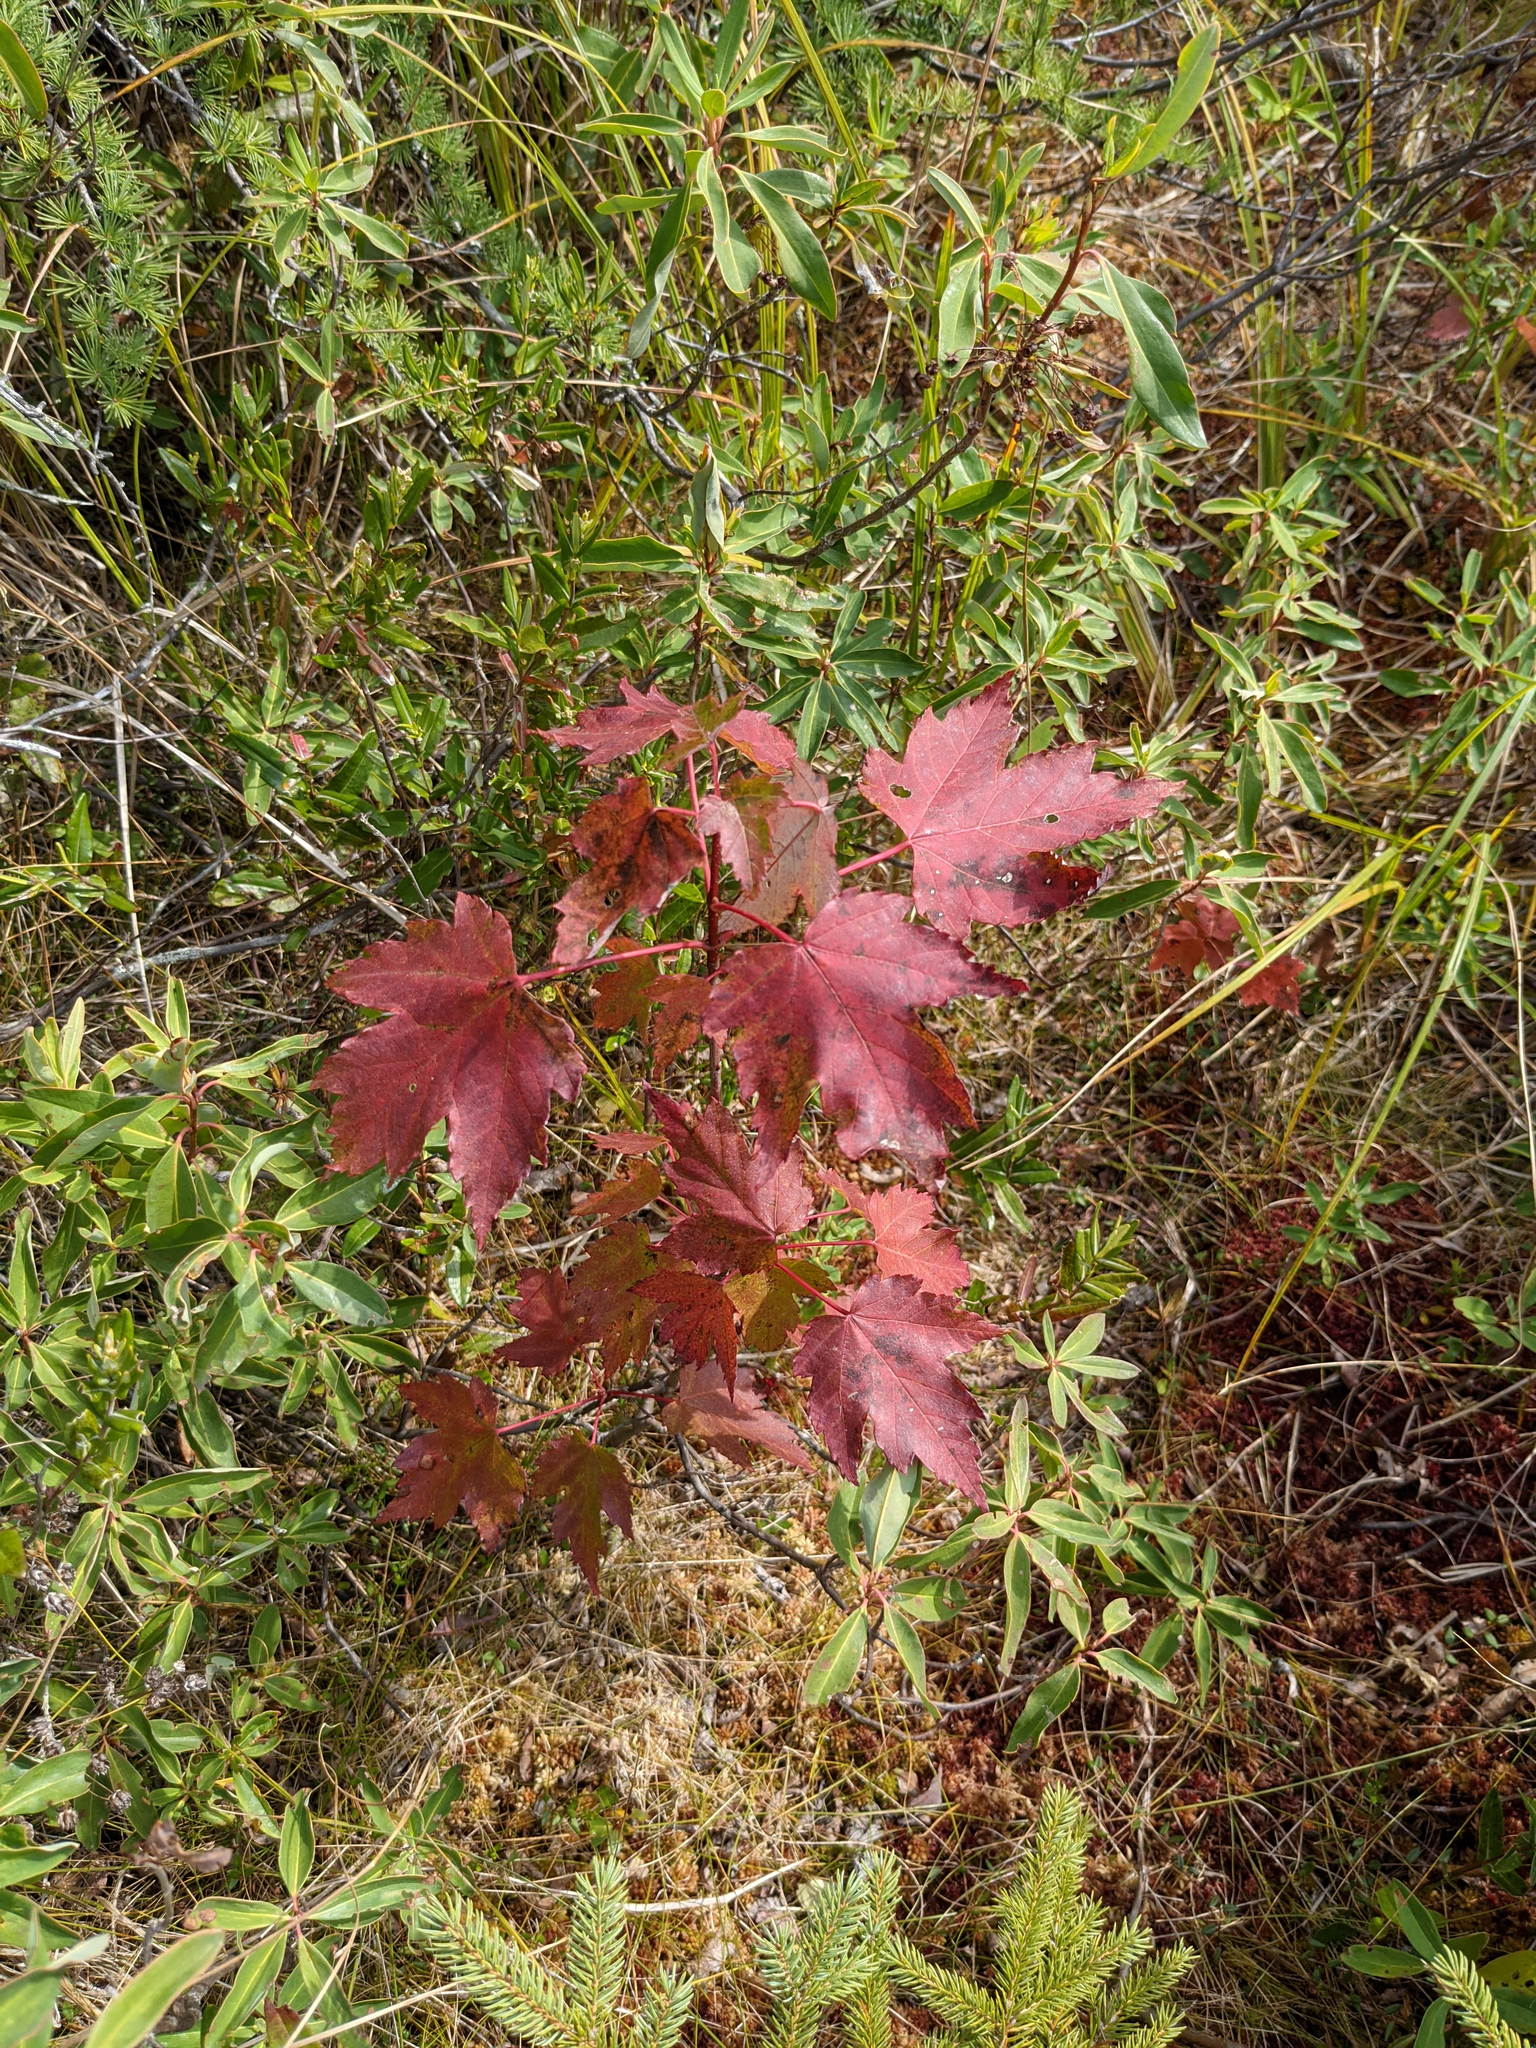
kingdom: Plantae
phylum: Tracheophyta
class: Magnoliopsida
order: Sapindales
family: Sapindaceae
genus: Acer
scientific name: Acer rubrum
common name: Red maple
